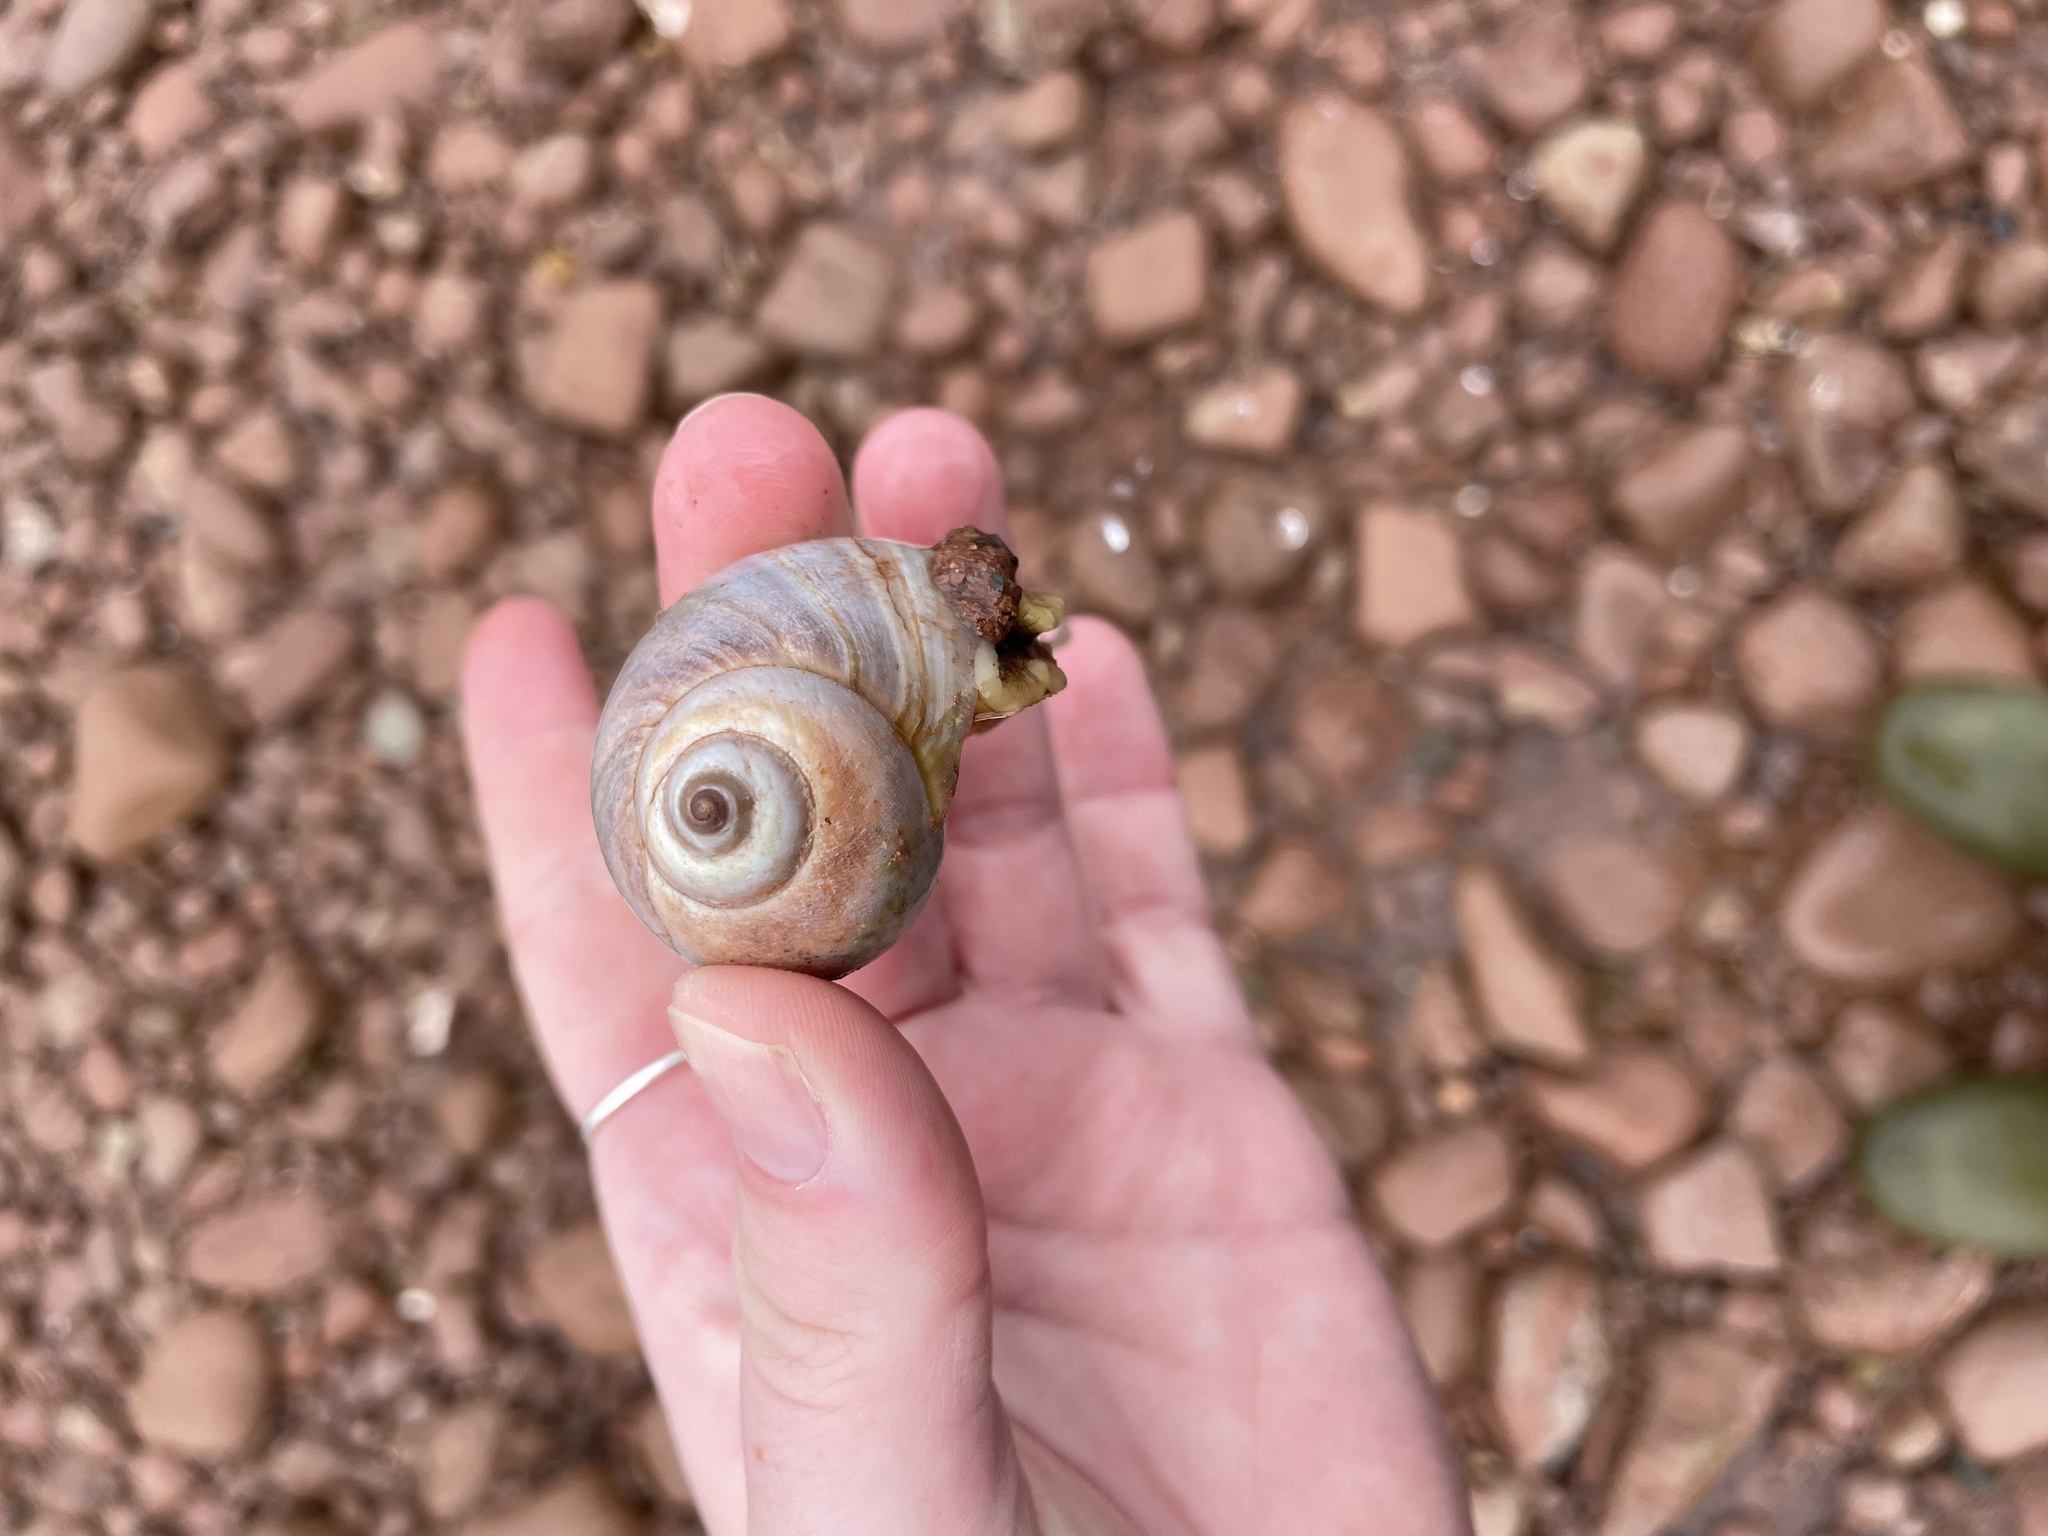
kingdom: Animalia
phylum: Mollusca
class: Gastropoda
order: Littorinimorpha
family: Naticidae
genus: Euspira
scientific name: Euspira heros
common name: Common northern moonsnail
